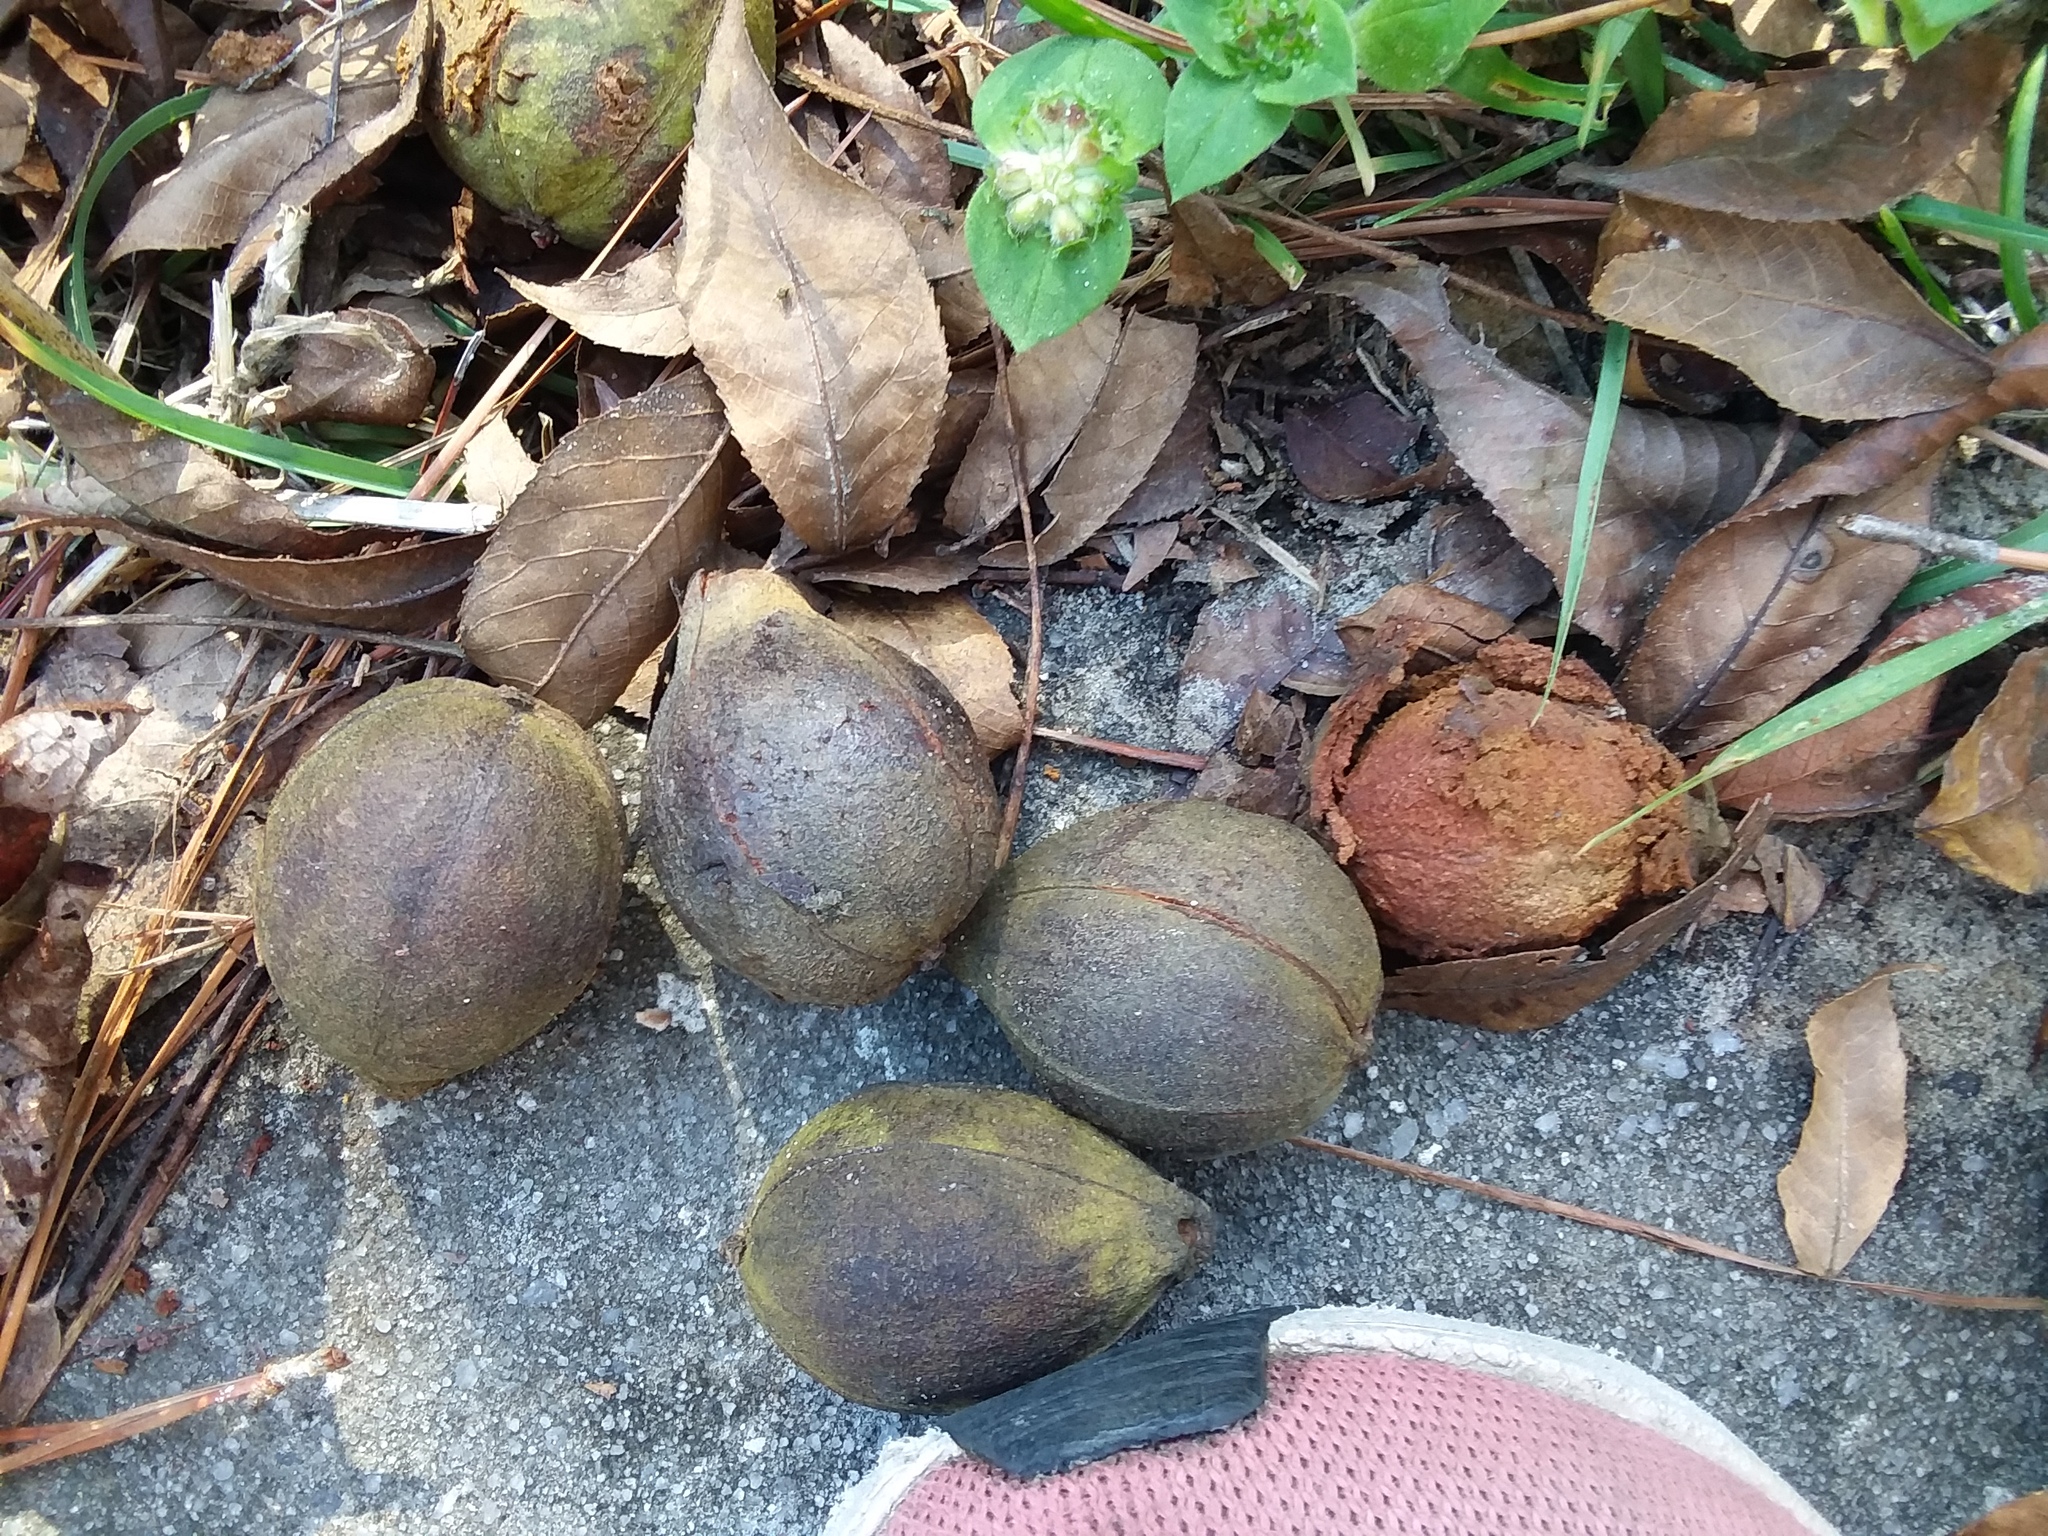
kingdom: Plantae
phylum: Tracheophyta
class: Magnoliopsida
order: Fagales
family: Juglandaceae
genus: Carya
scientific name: Carya glabra
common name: Pignut hickory
